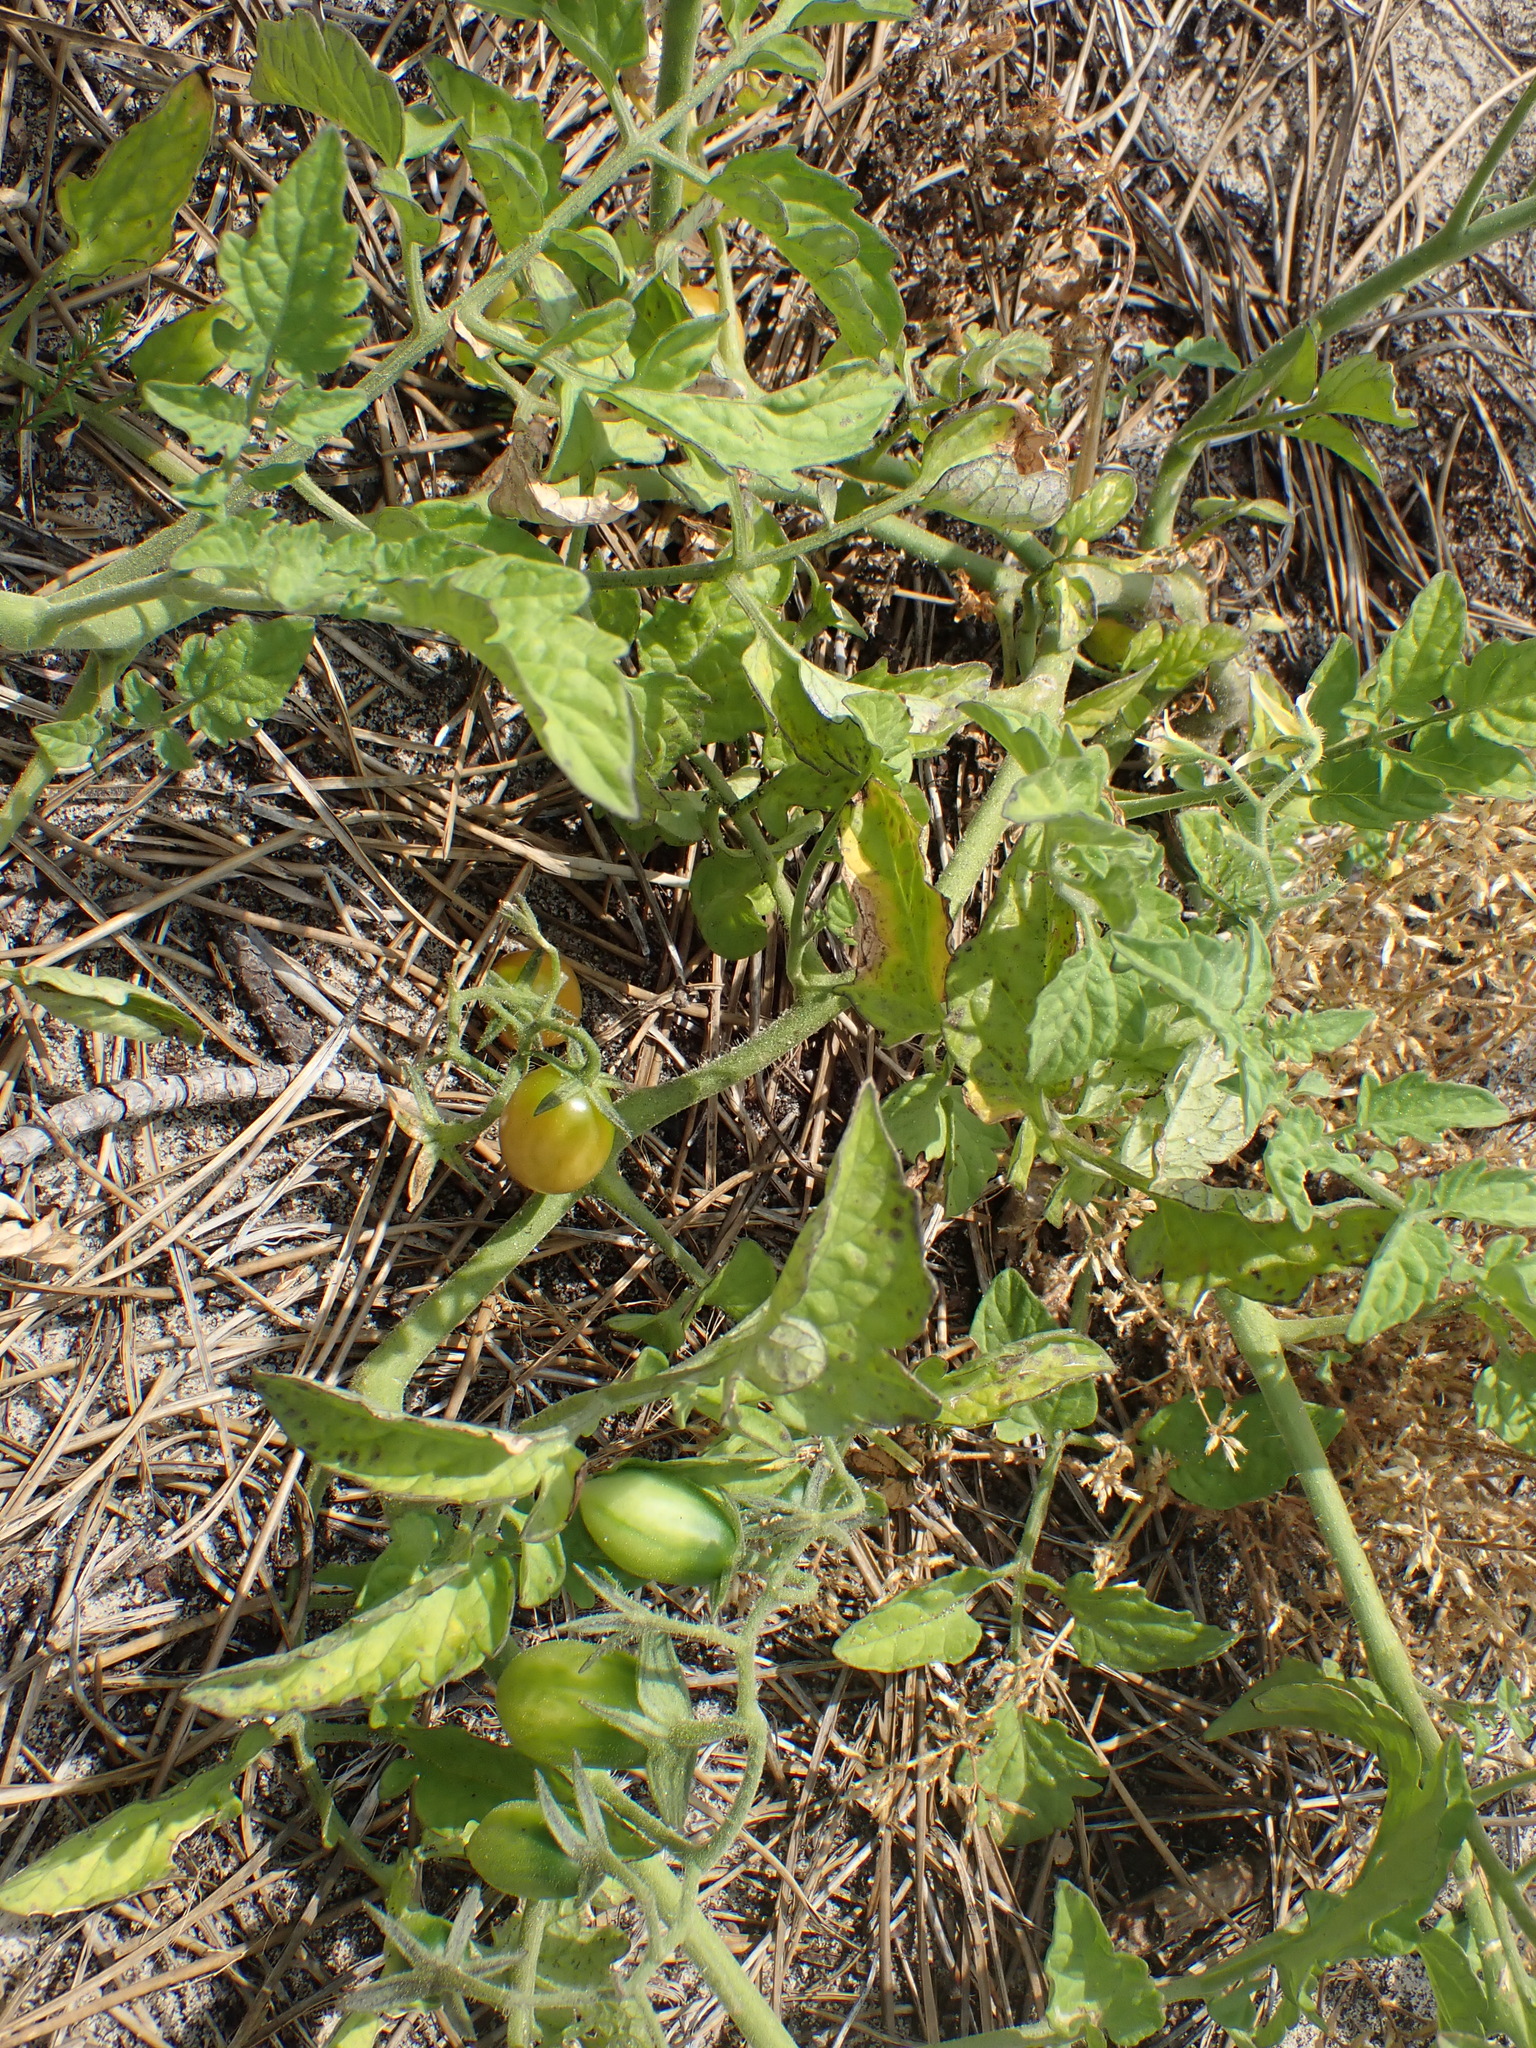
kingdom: Plantae
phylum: Tracheophyta
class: Magnoliopsida
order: Solanales
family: Solanaceae
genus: Solanum
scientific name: Solanum lycopersicum
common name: Garden tomato
